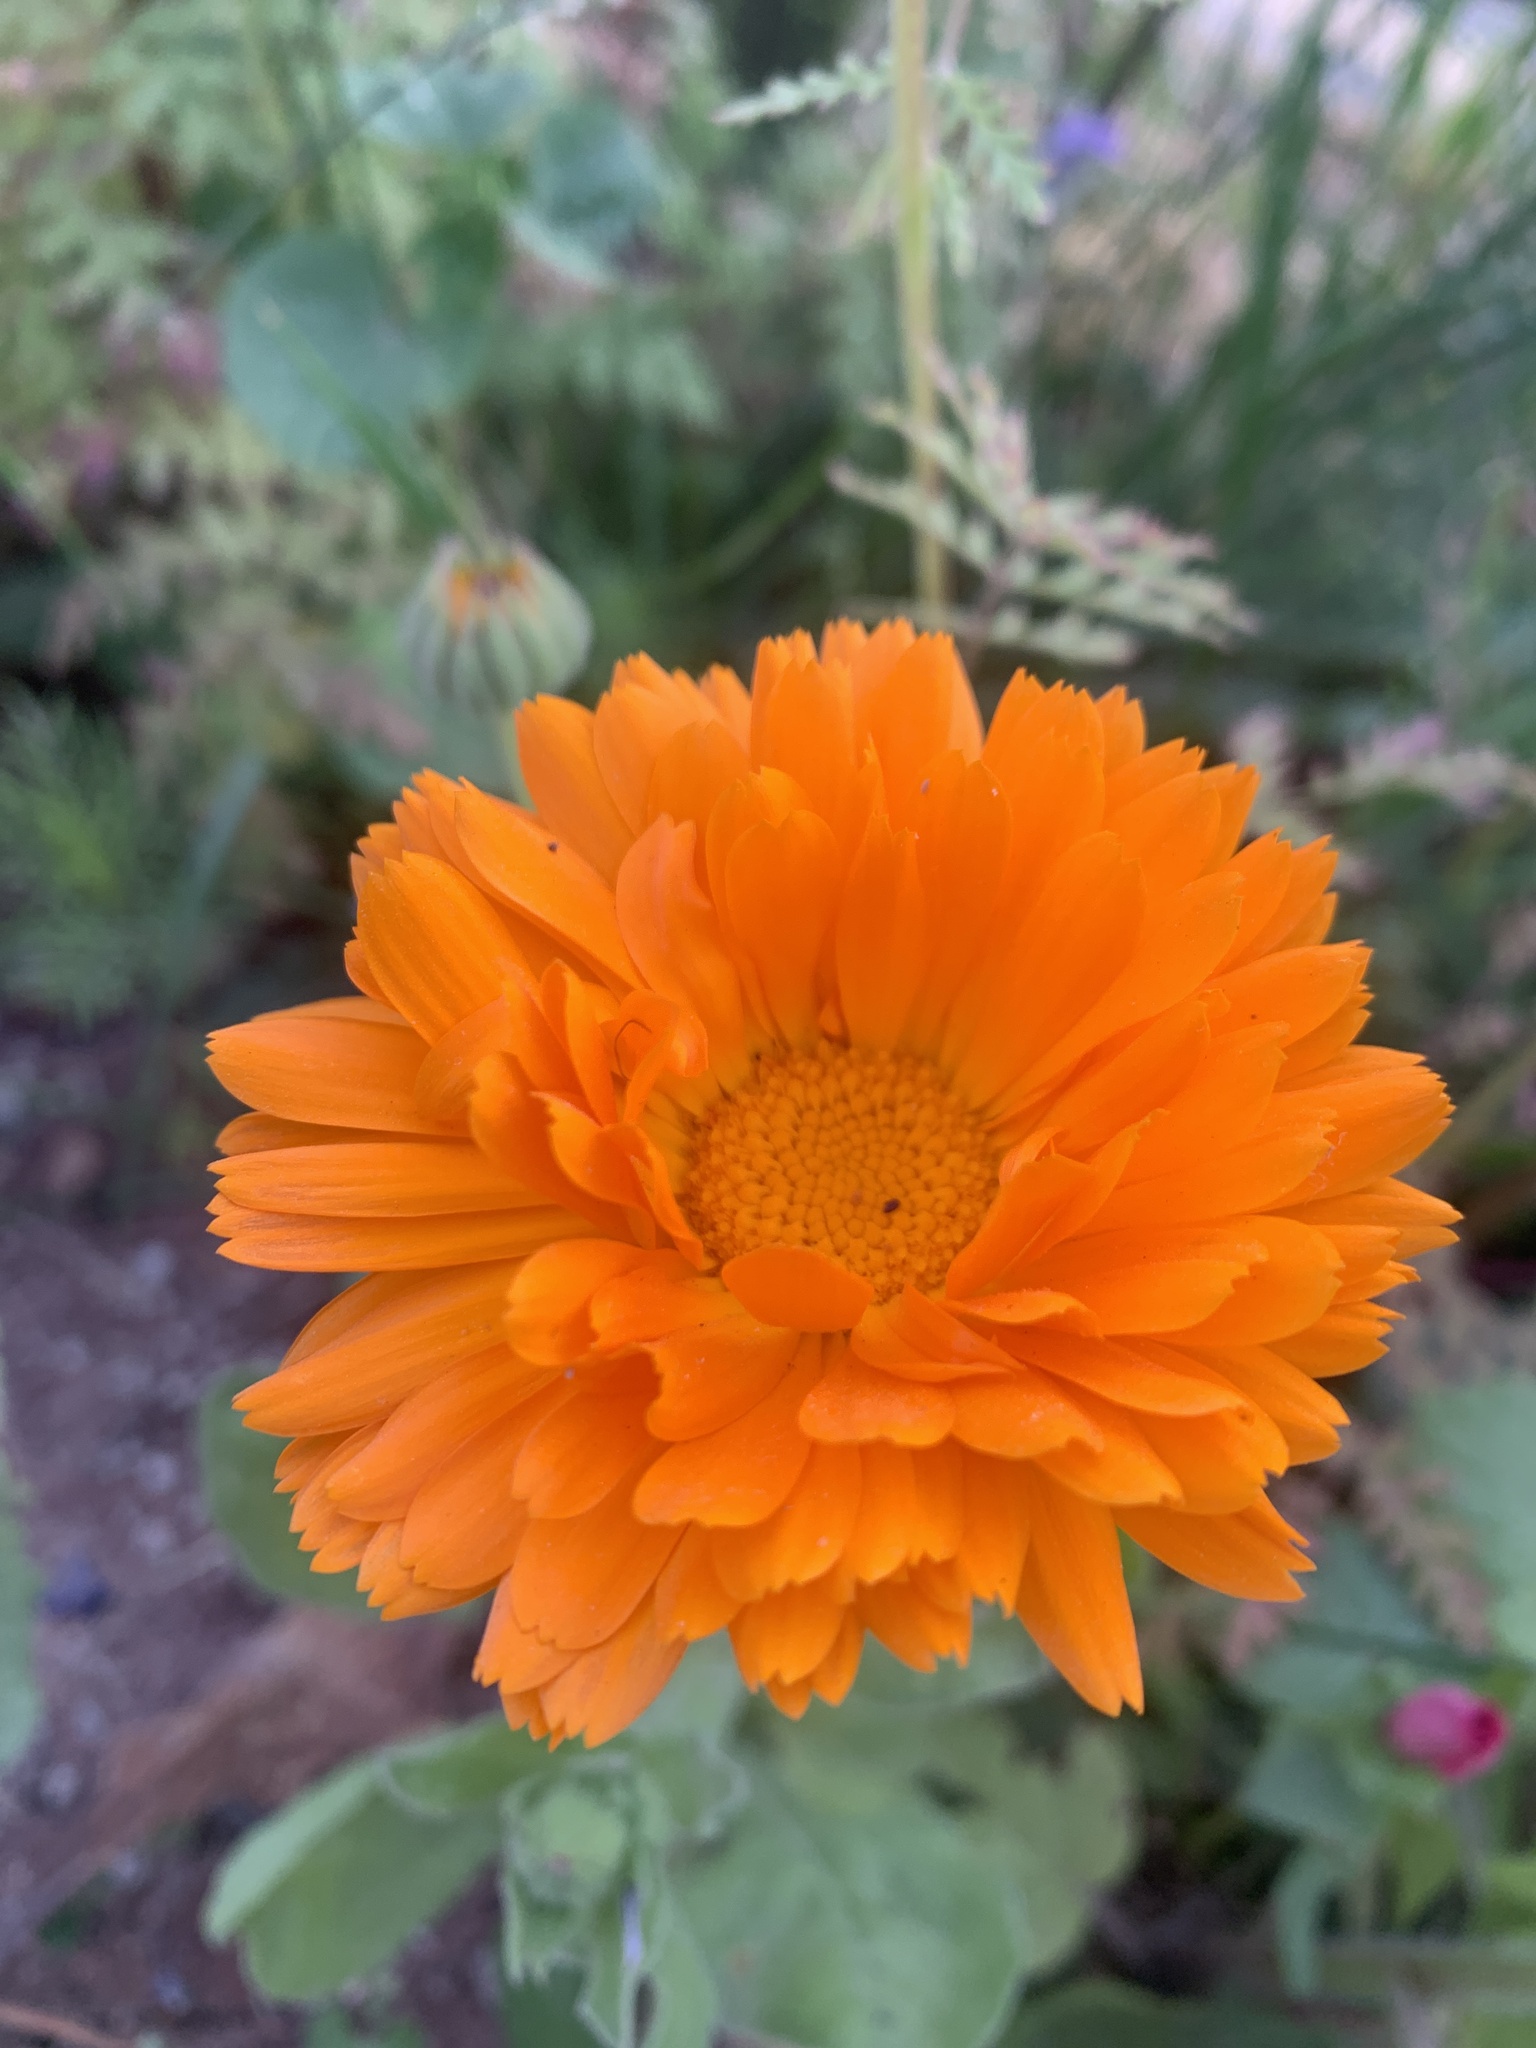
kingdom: Plantae
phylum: Tracheophyta
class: Magnoliopsida
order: Asterales
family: Asteraceae
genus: Calendula
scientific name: Calendula officinalis
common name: Pot marigold
